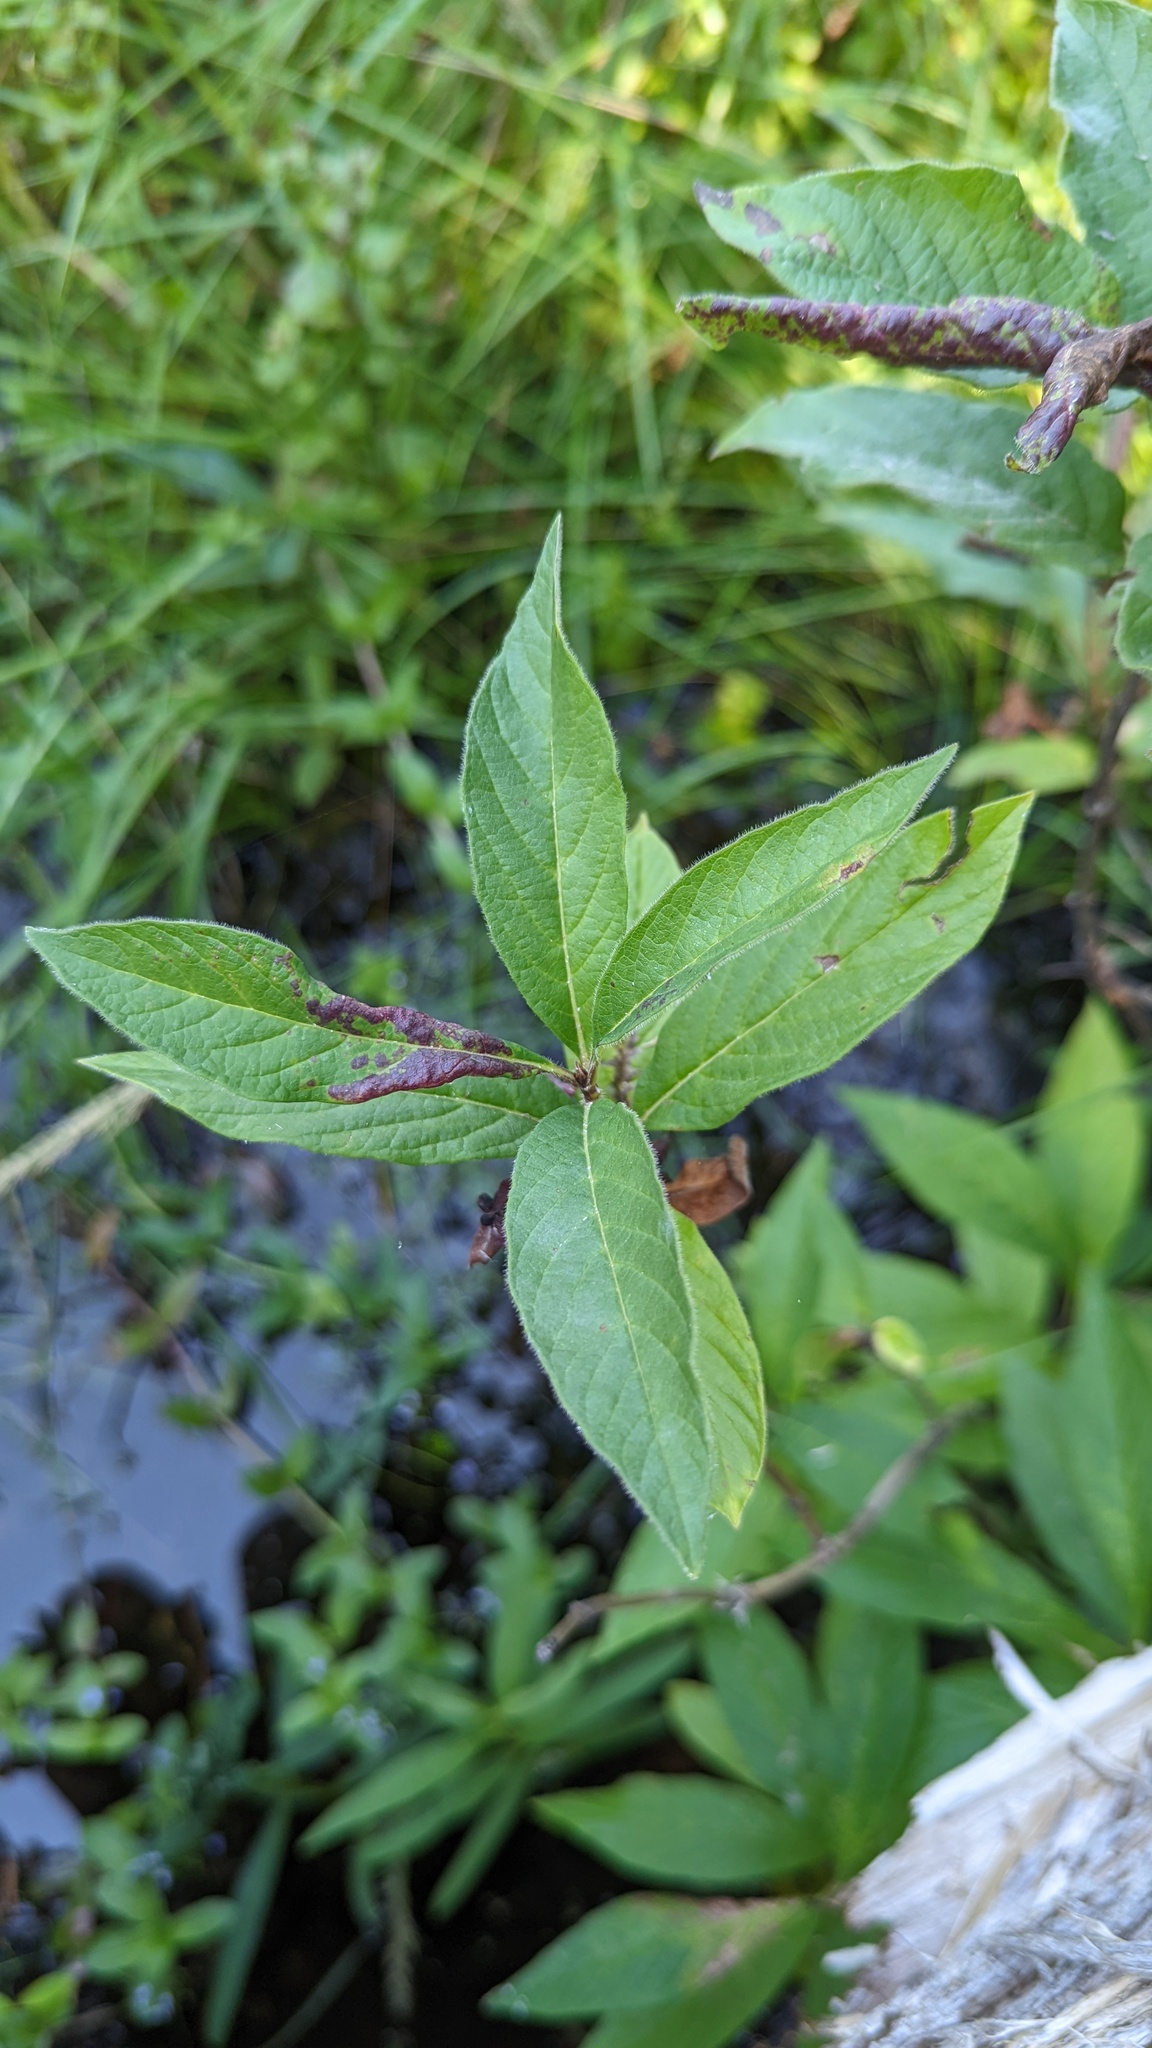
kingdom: Plantae
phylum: Tracheophyta
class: Magnoliopsida
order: Dipsacales
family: Caprifoliaceae
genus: Lonicera
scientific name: Lonicera involucrata
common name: Californian honeysuckle
